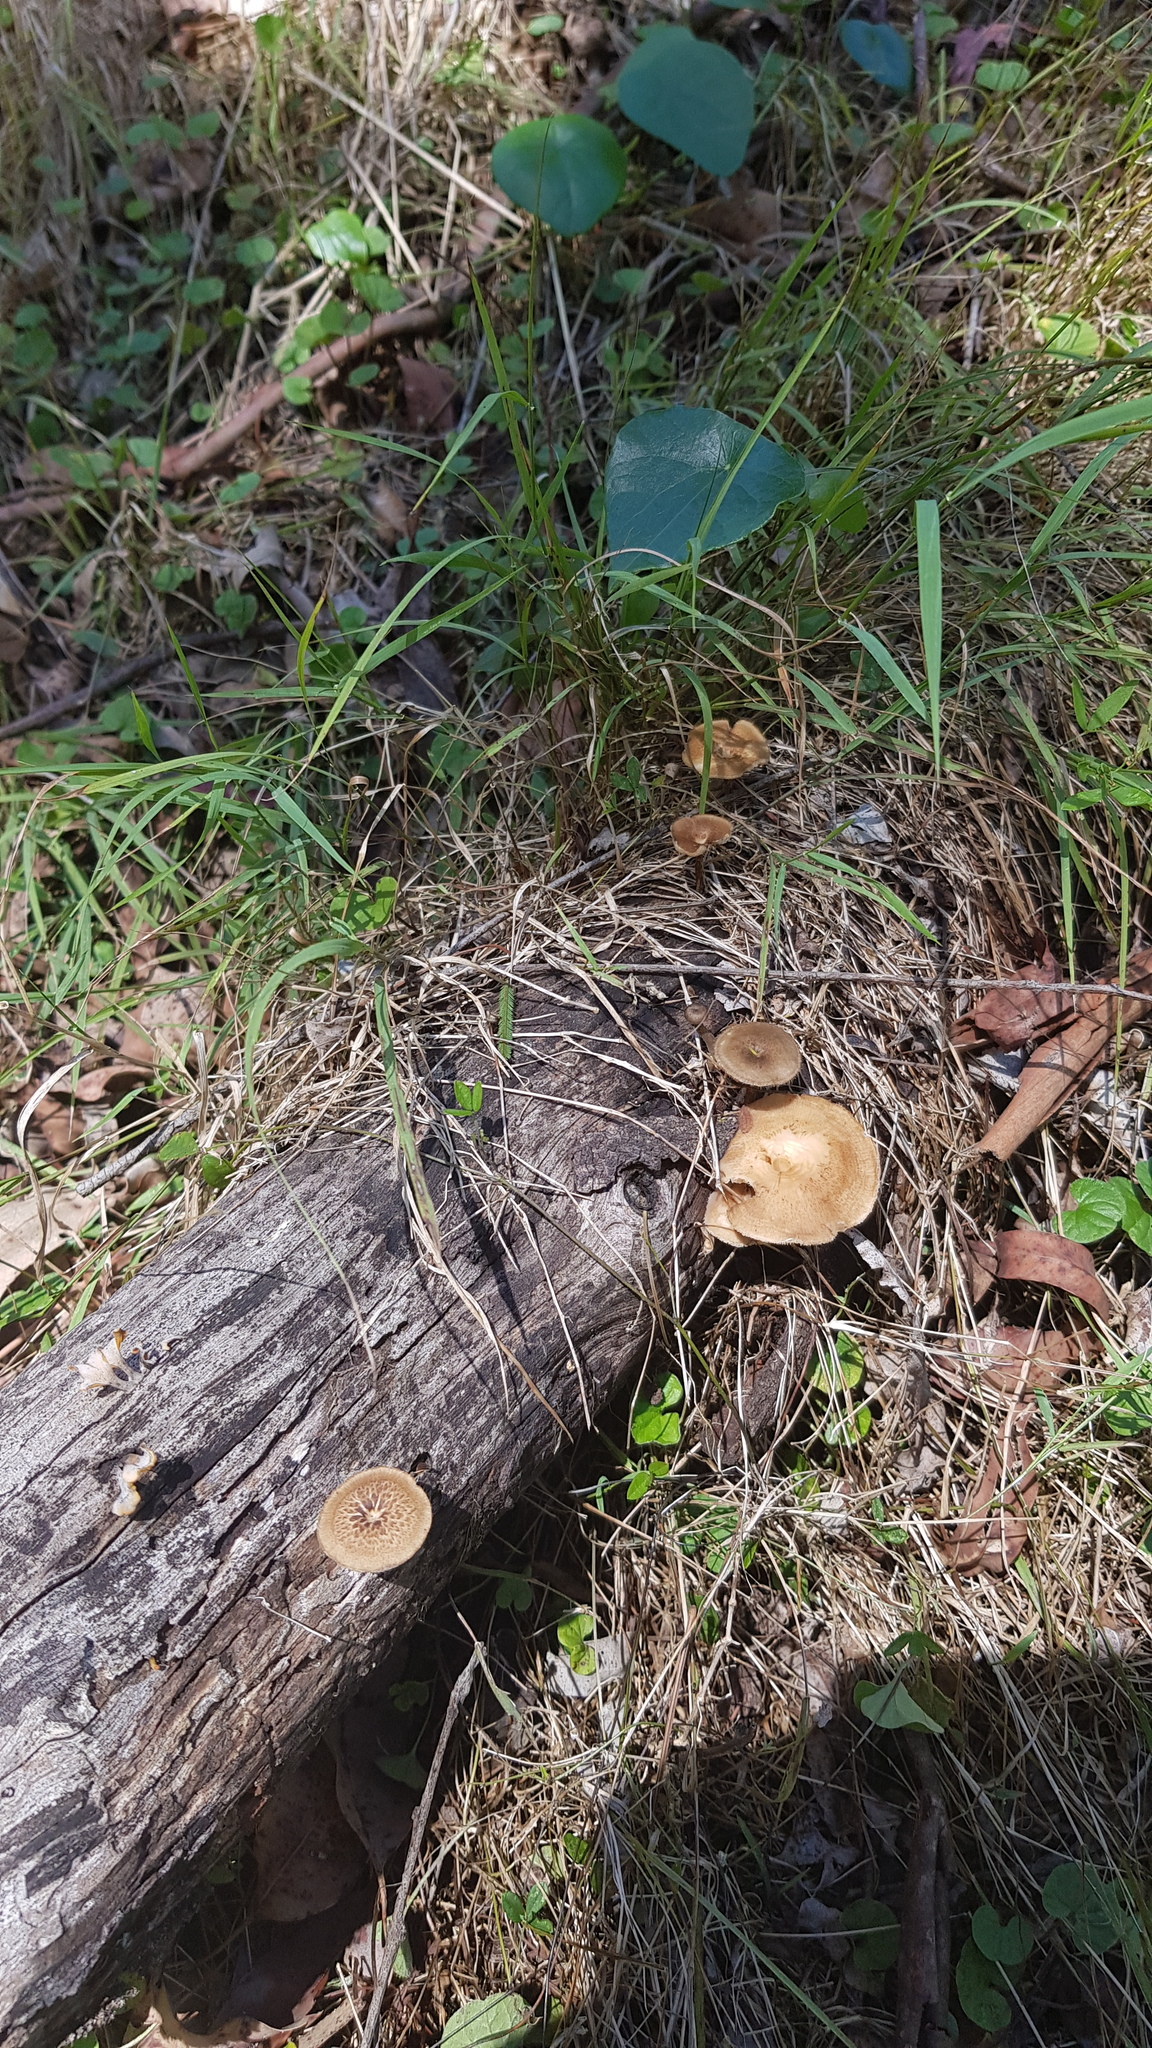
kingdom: Fungi
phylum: Basidiomycota
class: Agaricomycetes
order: Polyporales
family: Polyporaceae
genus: Lentinus
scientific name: Lentinus arcularius
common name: Spring polypore
